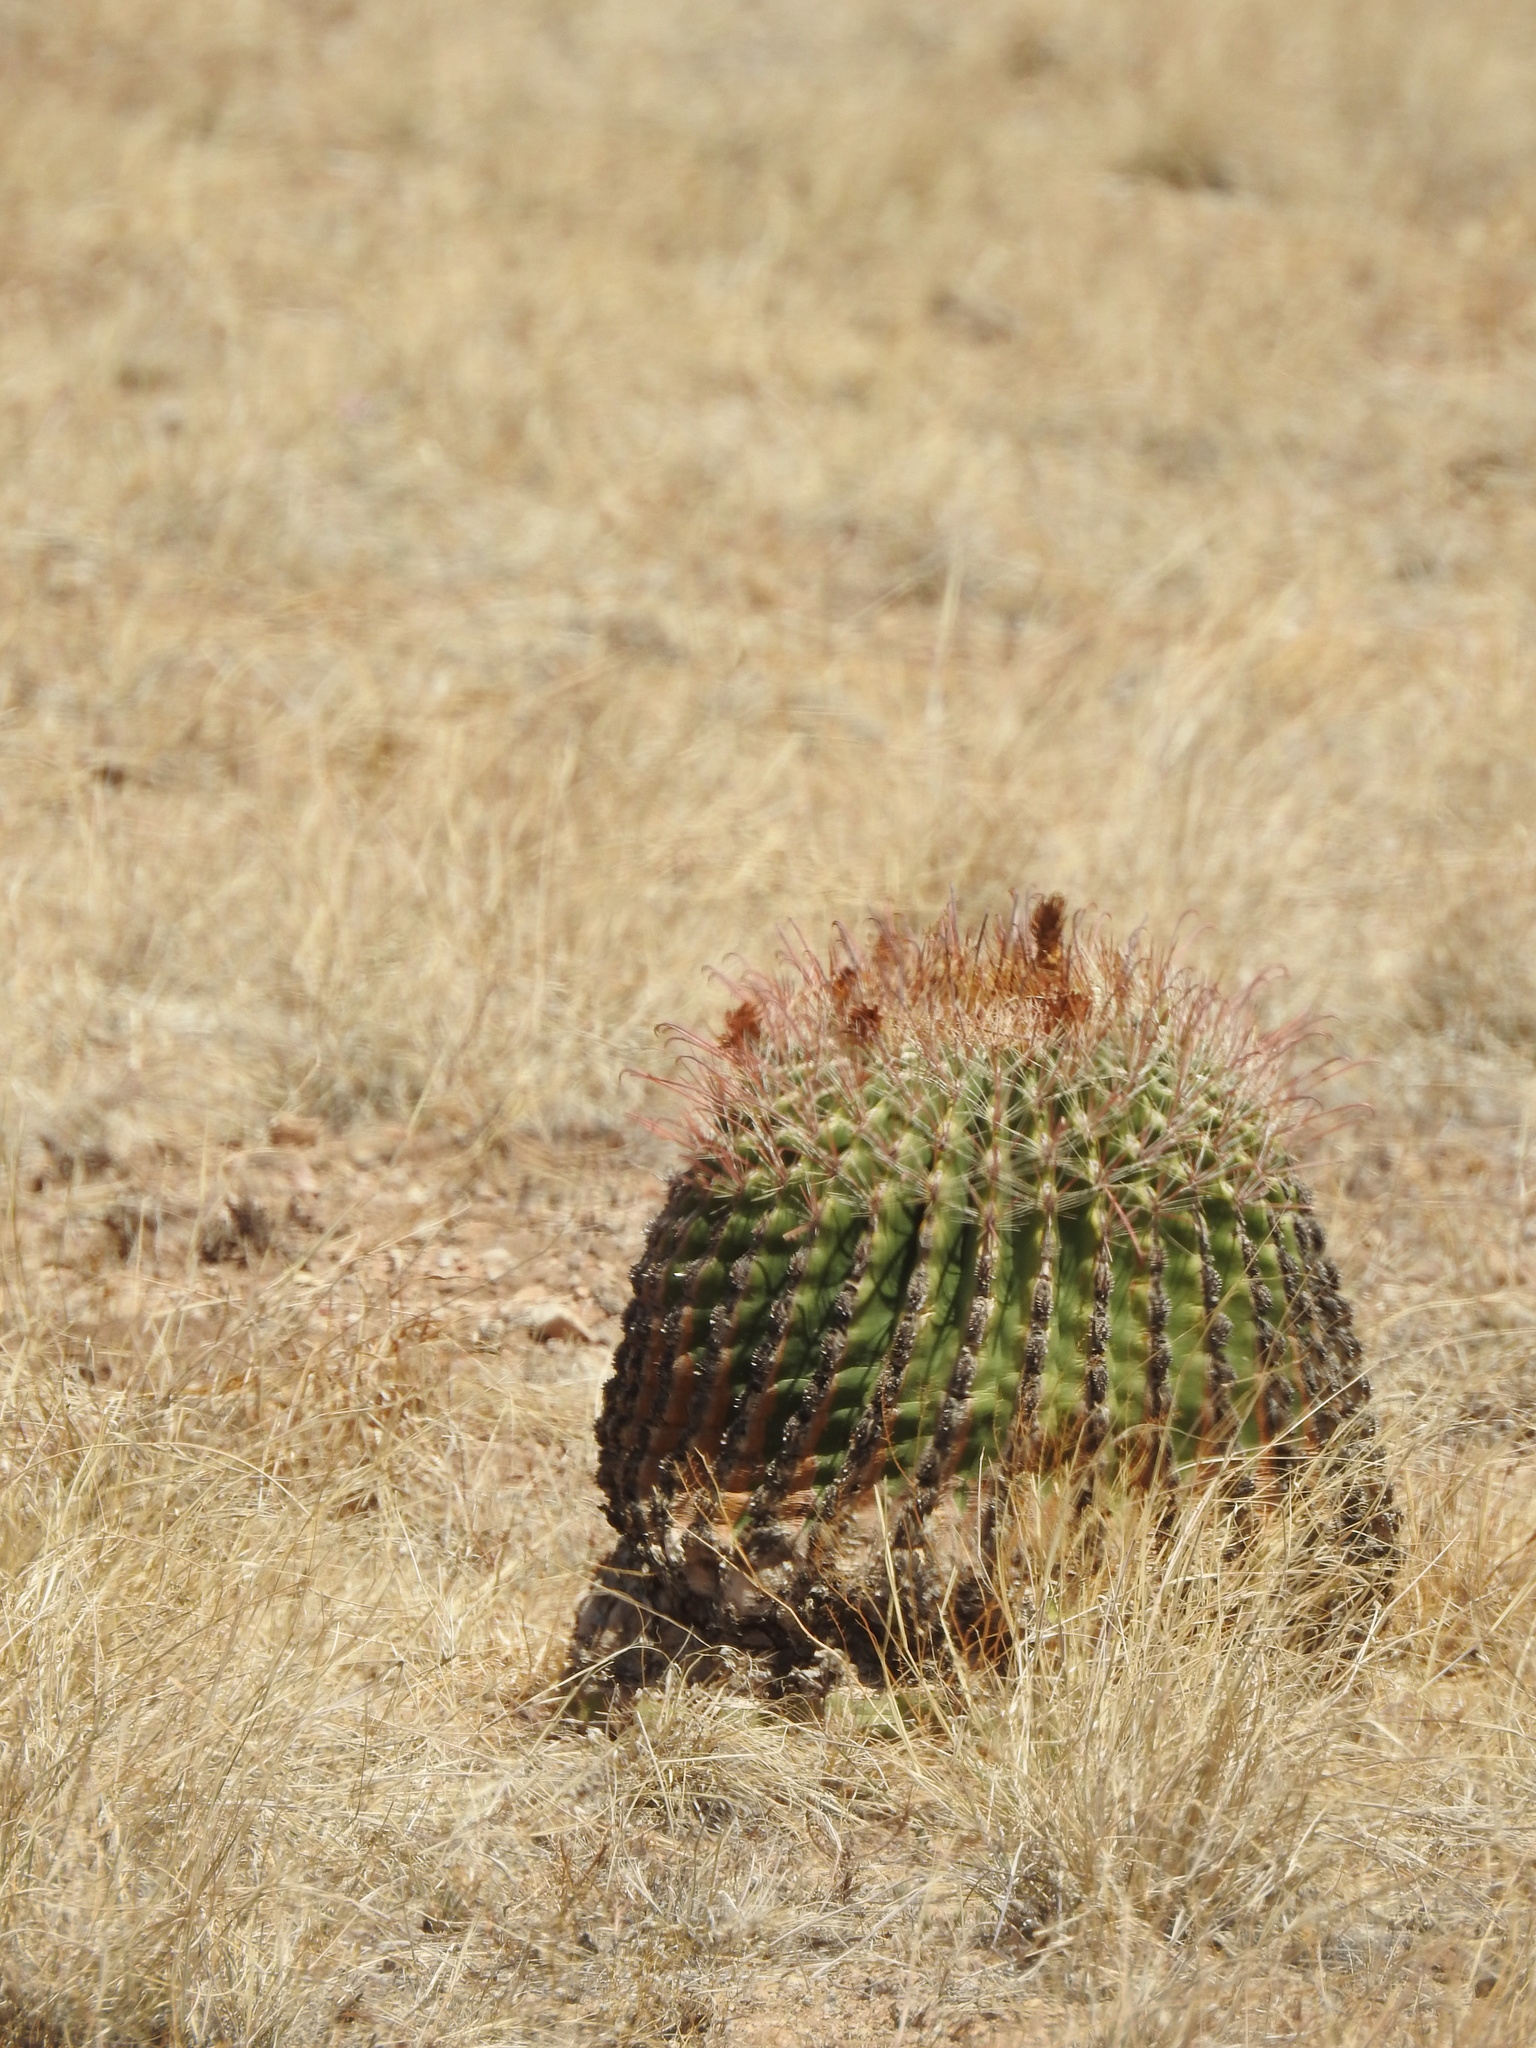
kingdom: Plantae
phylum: Tracheophyta
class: Magnoliopsida
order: Caryophyllales
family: Cactaceae
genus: Ferocactus
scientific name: Ferocactus wislizeni
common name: Candy barrel cactus
